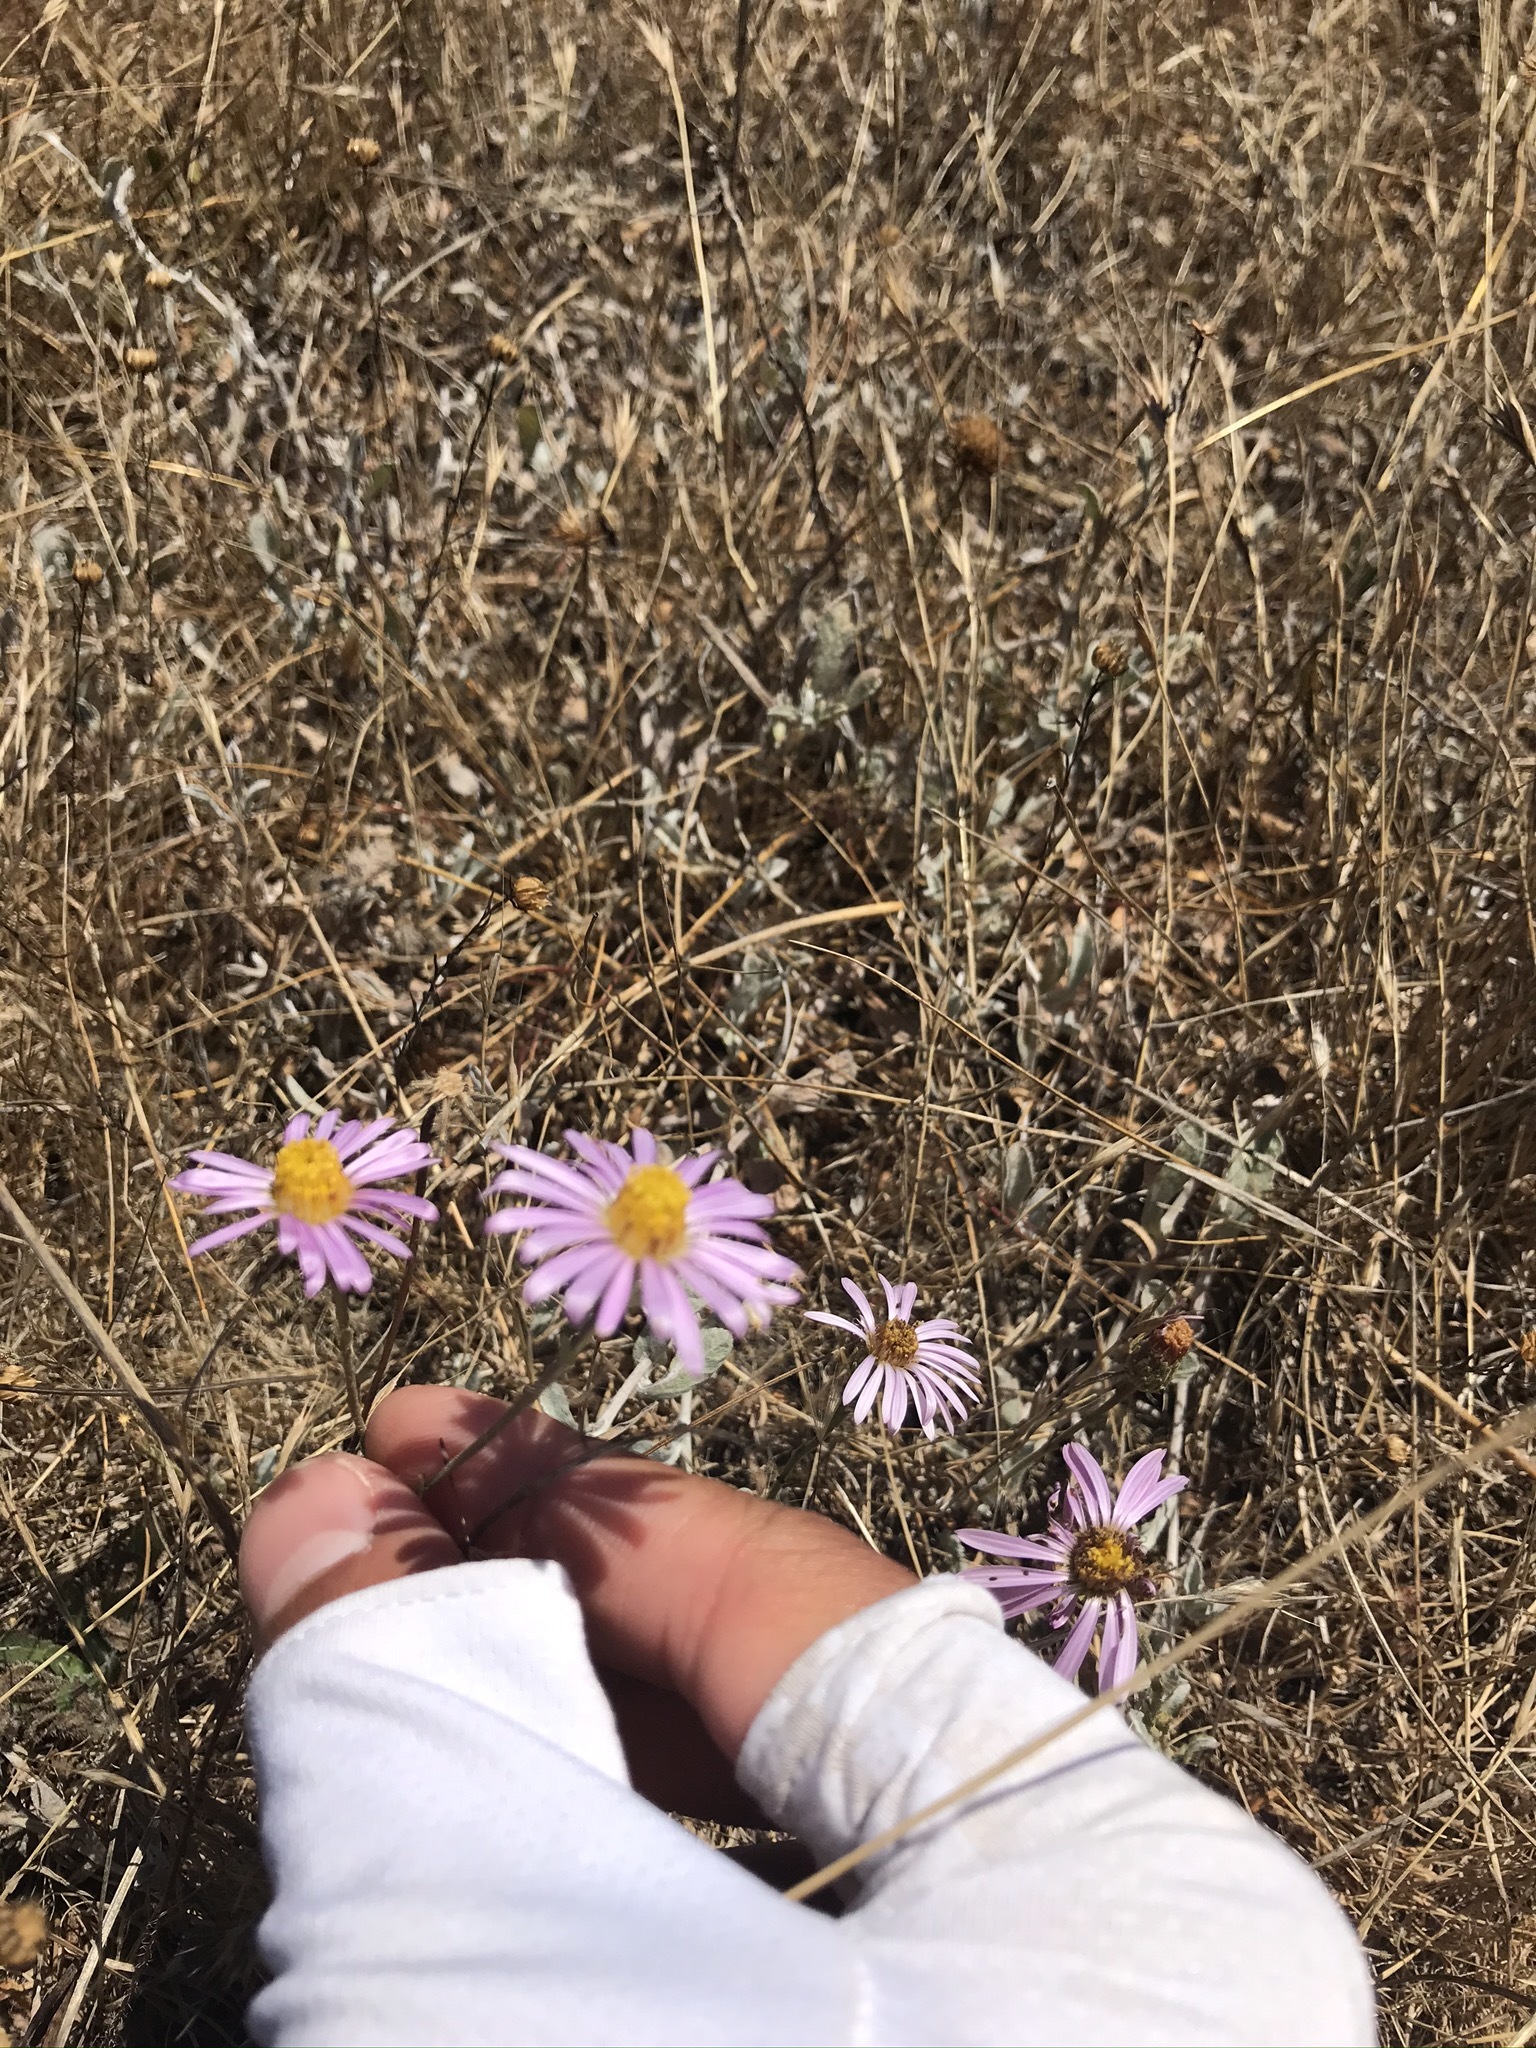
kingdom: Plantae
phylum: Tracheophyta
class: Magnoliopsida
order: Asterales
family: Asteraceae
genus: Corethrogyne
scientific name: Corethrogyne filaginifolia
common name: Sand-aster
